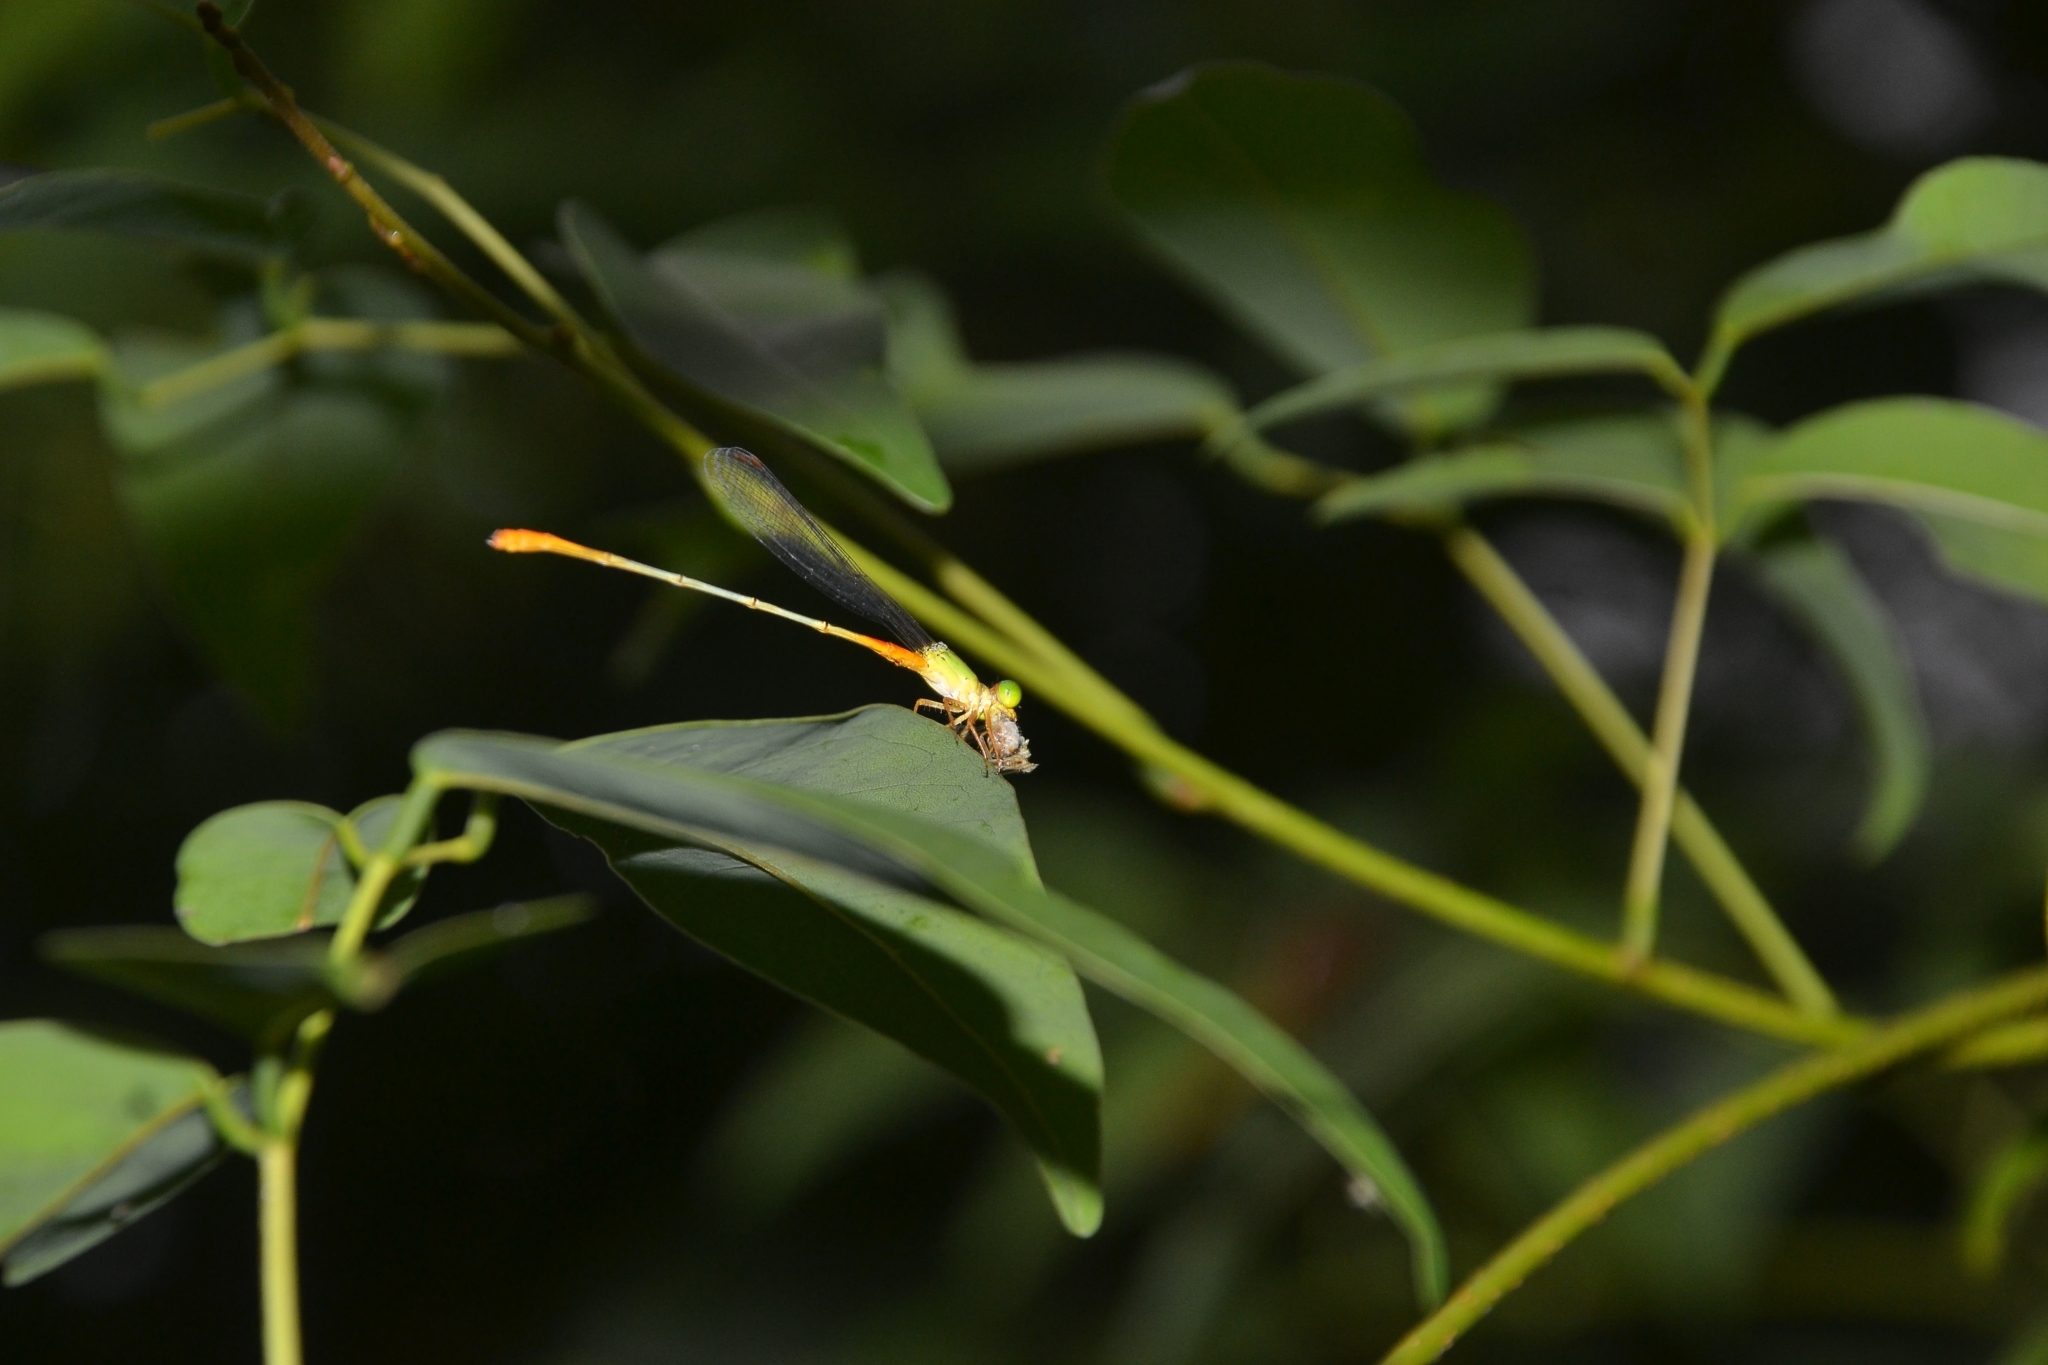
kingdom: Animalia
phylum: Arthropoda
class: Insecta
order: Odonata
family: Coenagrionidae
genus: Ceriagrion
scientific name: Ceriagrion cerinorubellum
